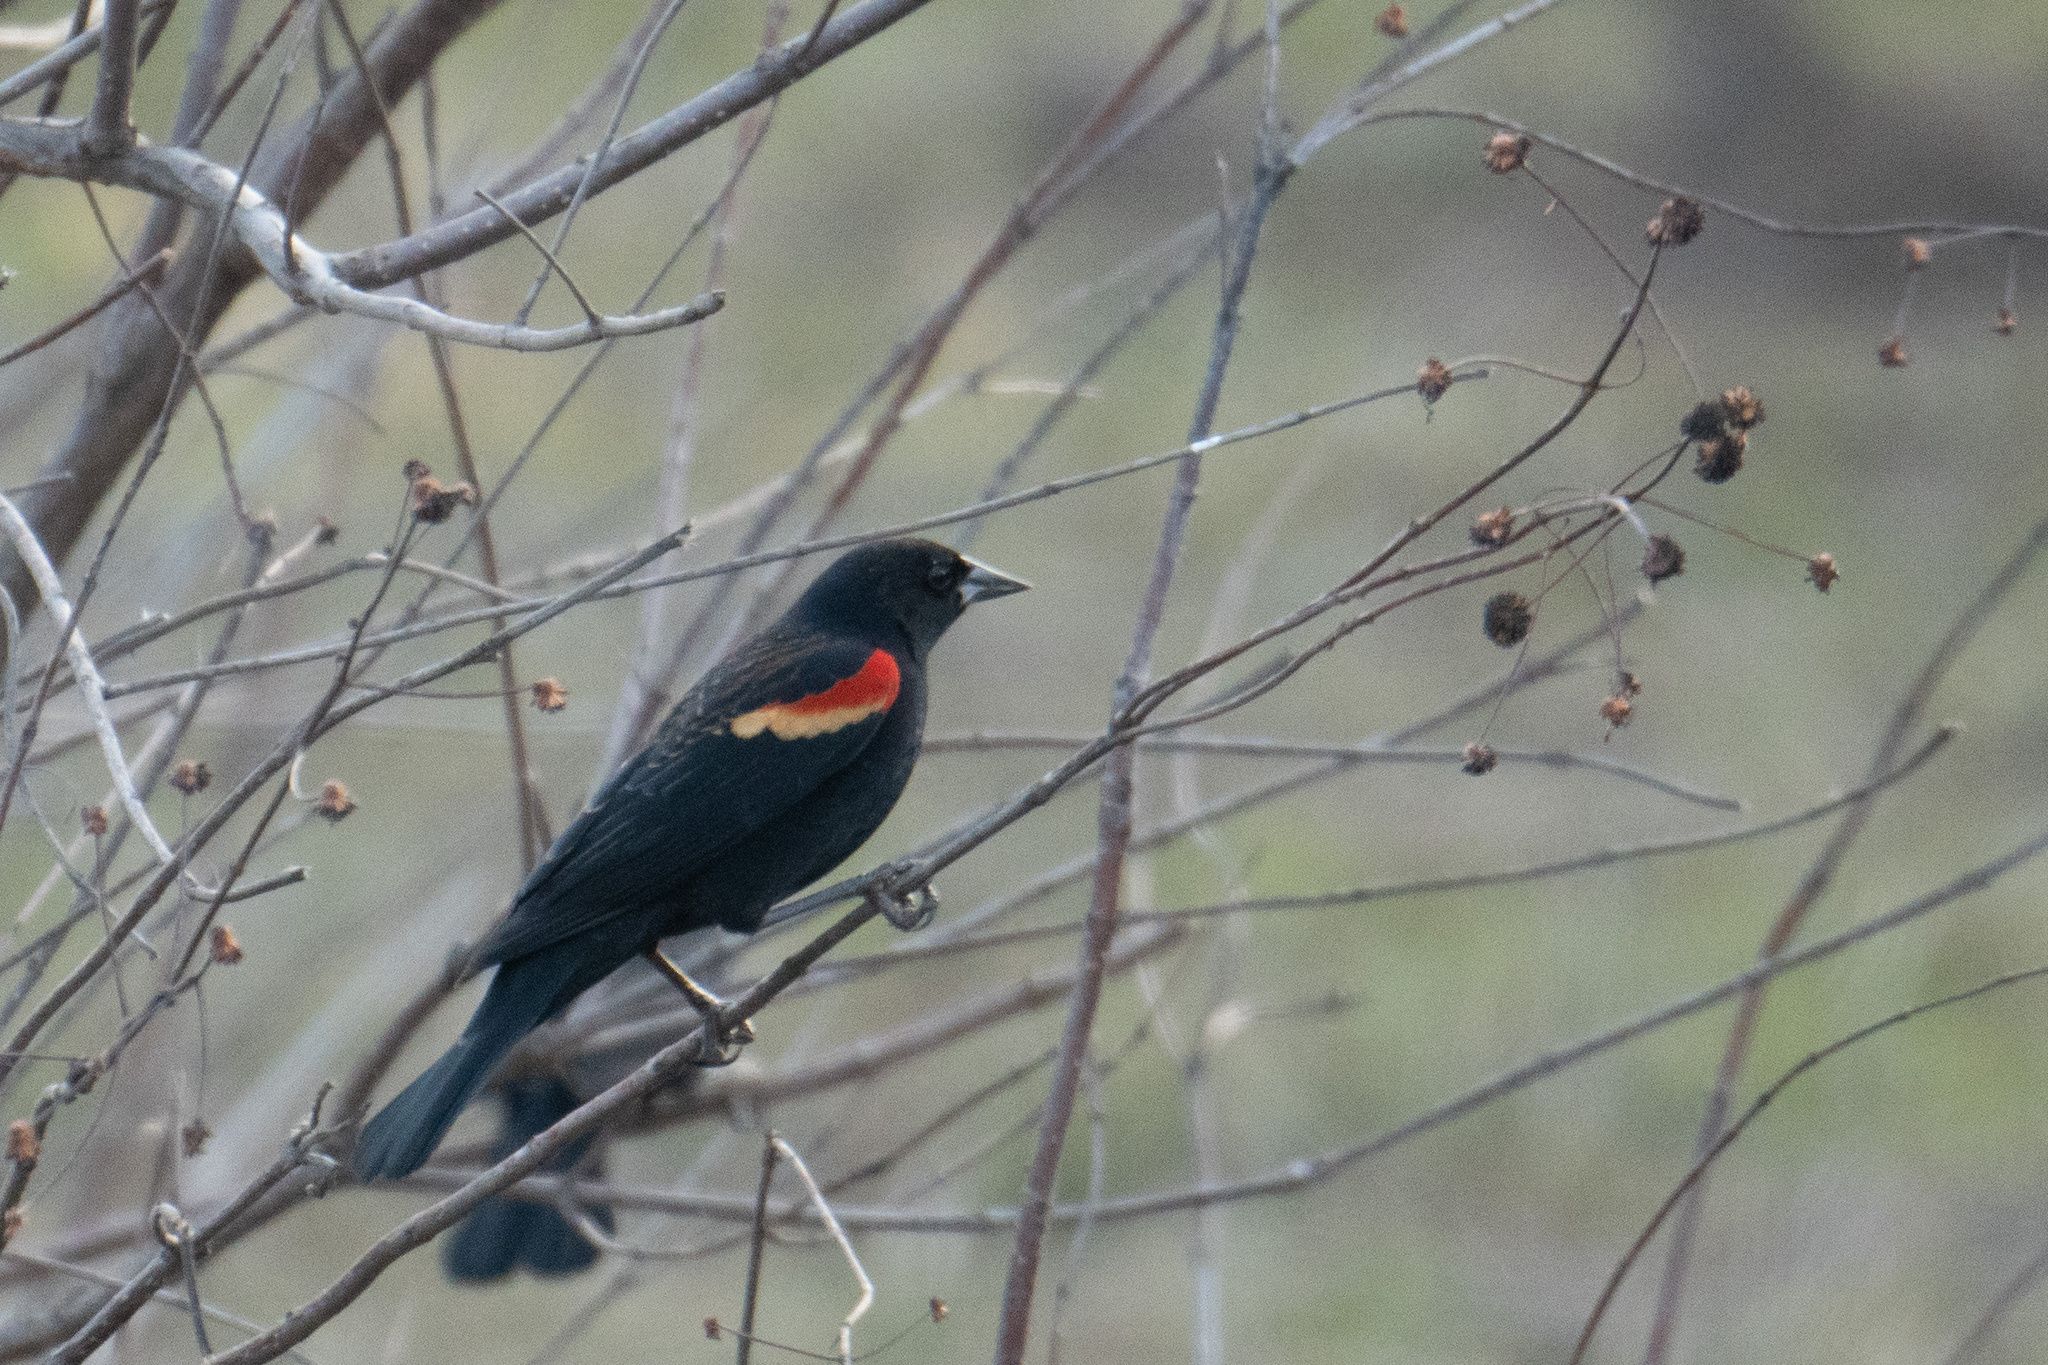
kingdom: Animalia
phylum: Chordata
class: Aves
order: Passeriformes
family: Icteridae
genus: Agelaius
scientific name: Agelaius phoeniceus
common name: Red-winged blackbird
